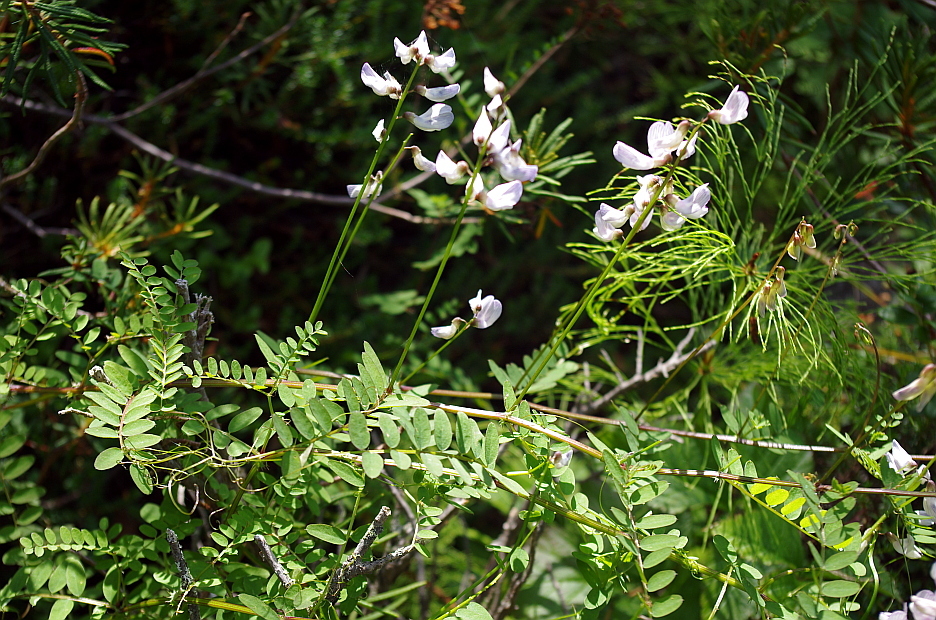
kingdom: Plantae
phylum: Tracheophyta
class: Magnoliopsida
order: Fabales
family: Fabaceae
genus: Vicia
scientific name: Vicia sylvatica
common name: Wood vetch
